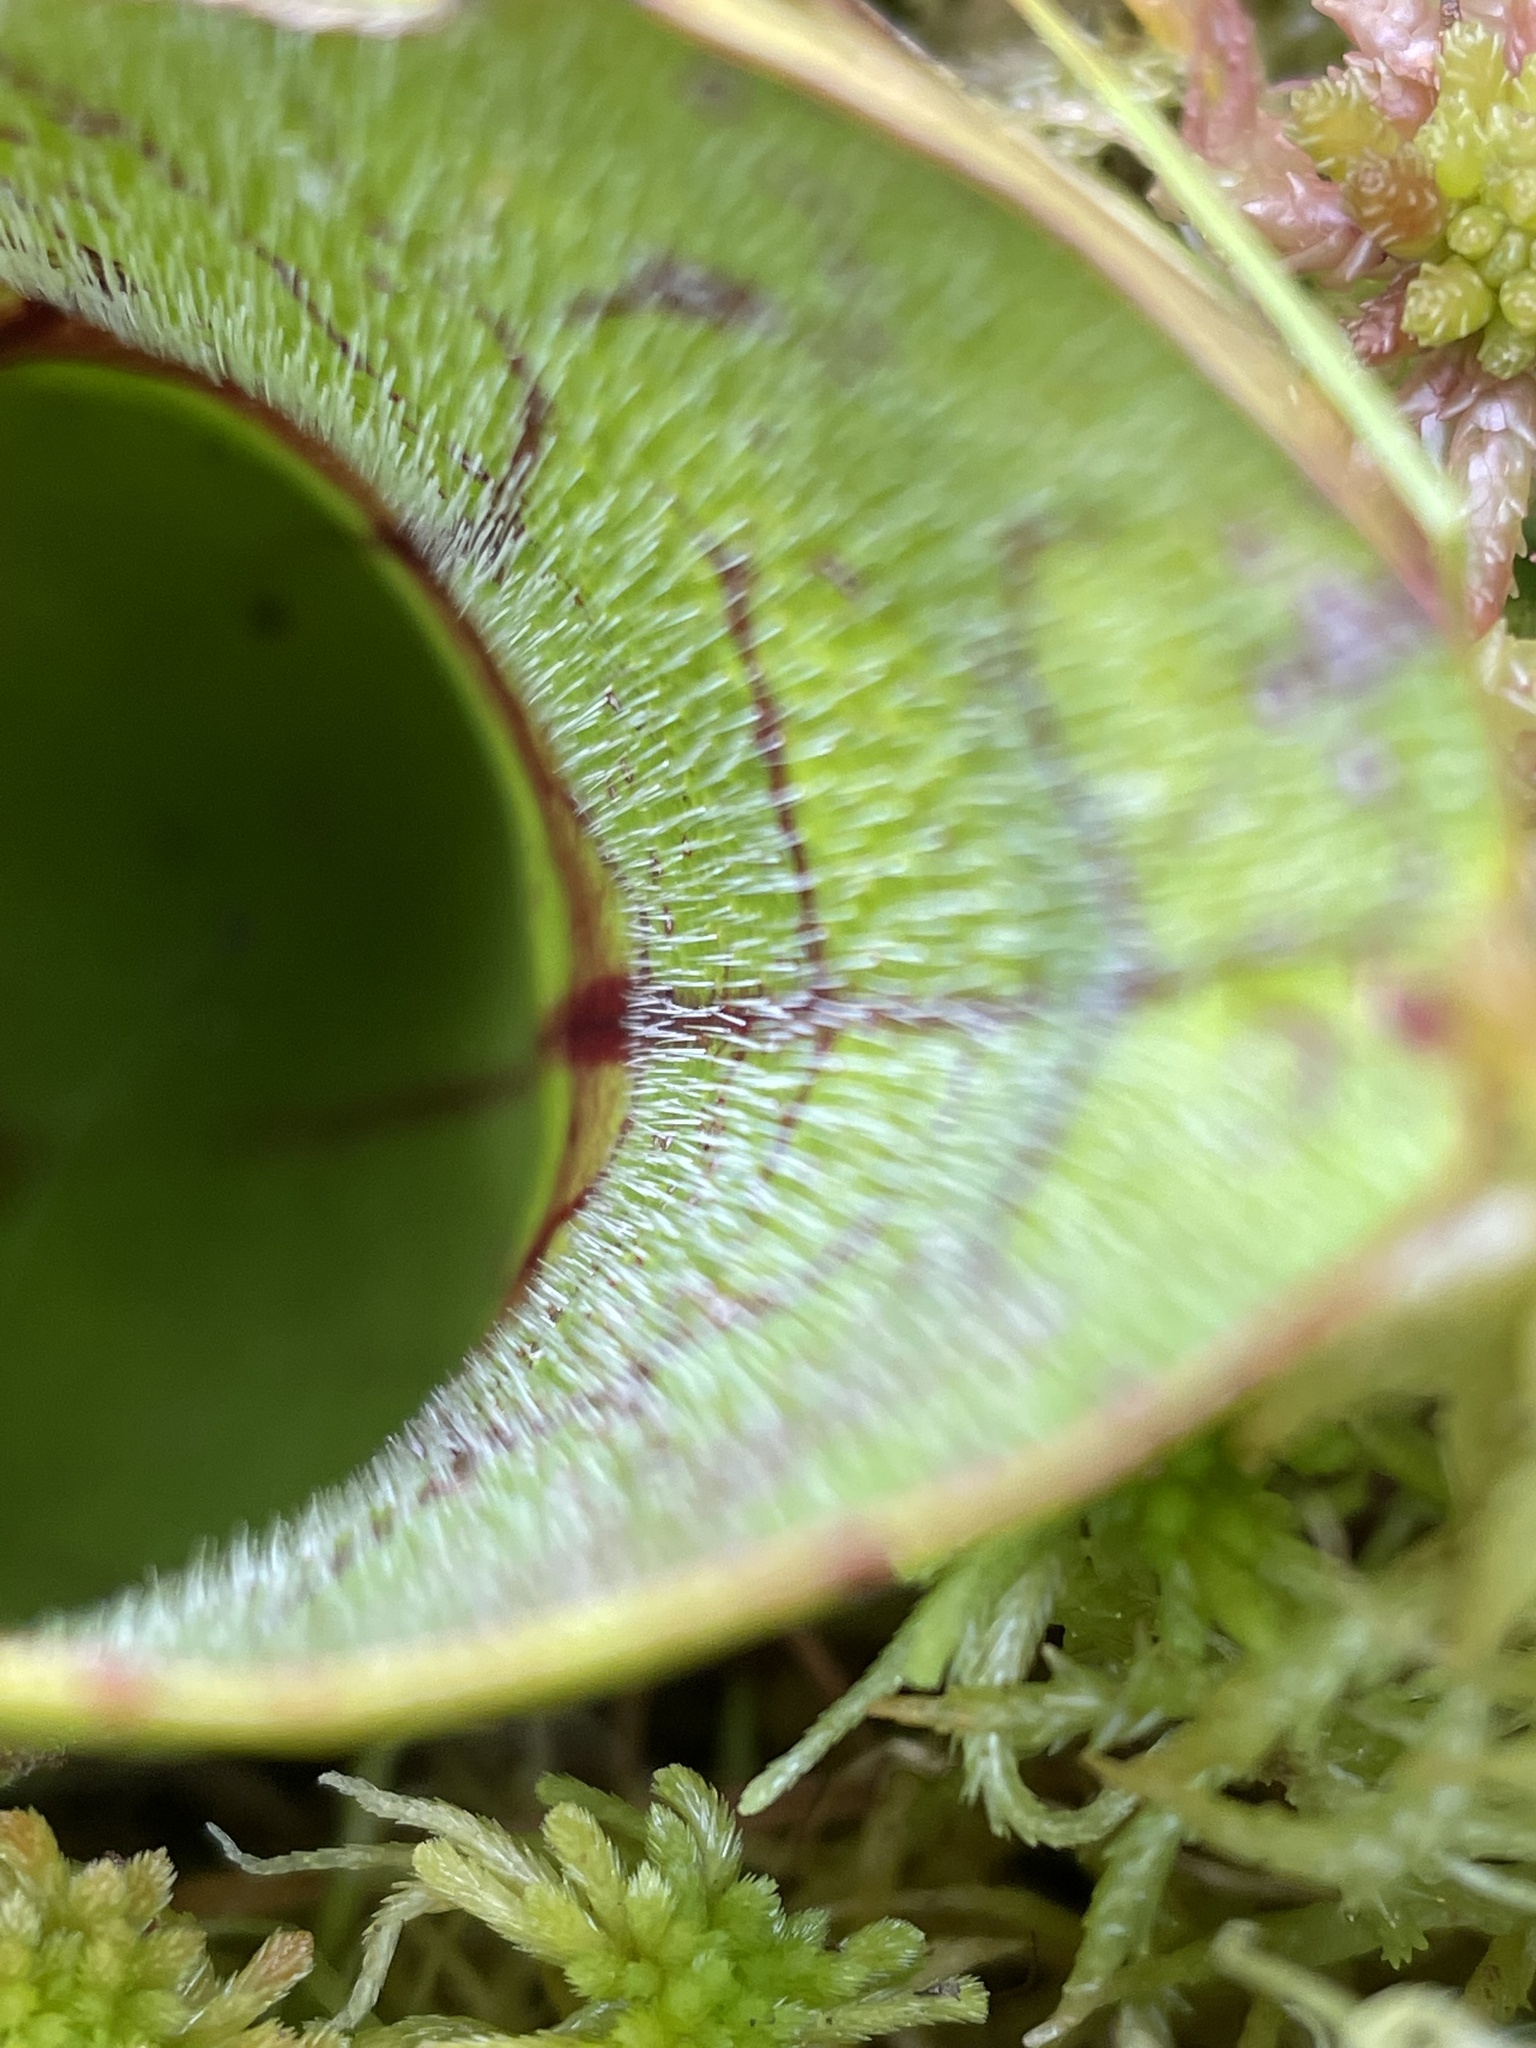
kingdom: Plantae
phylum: Tracheophyta
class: Magnoliopsida
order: Ericales
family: Sarraceniaceae
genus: Sarracenia
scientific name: Sarracenia purpurea
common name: Pitcherplant
